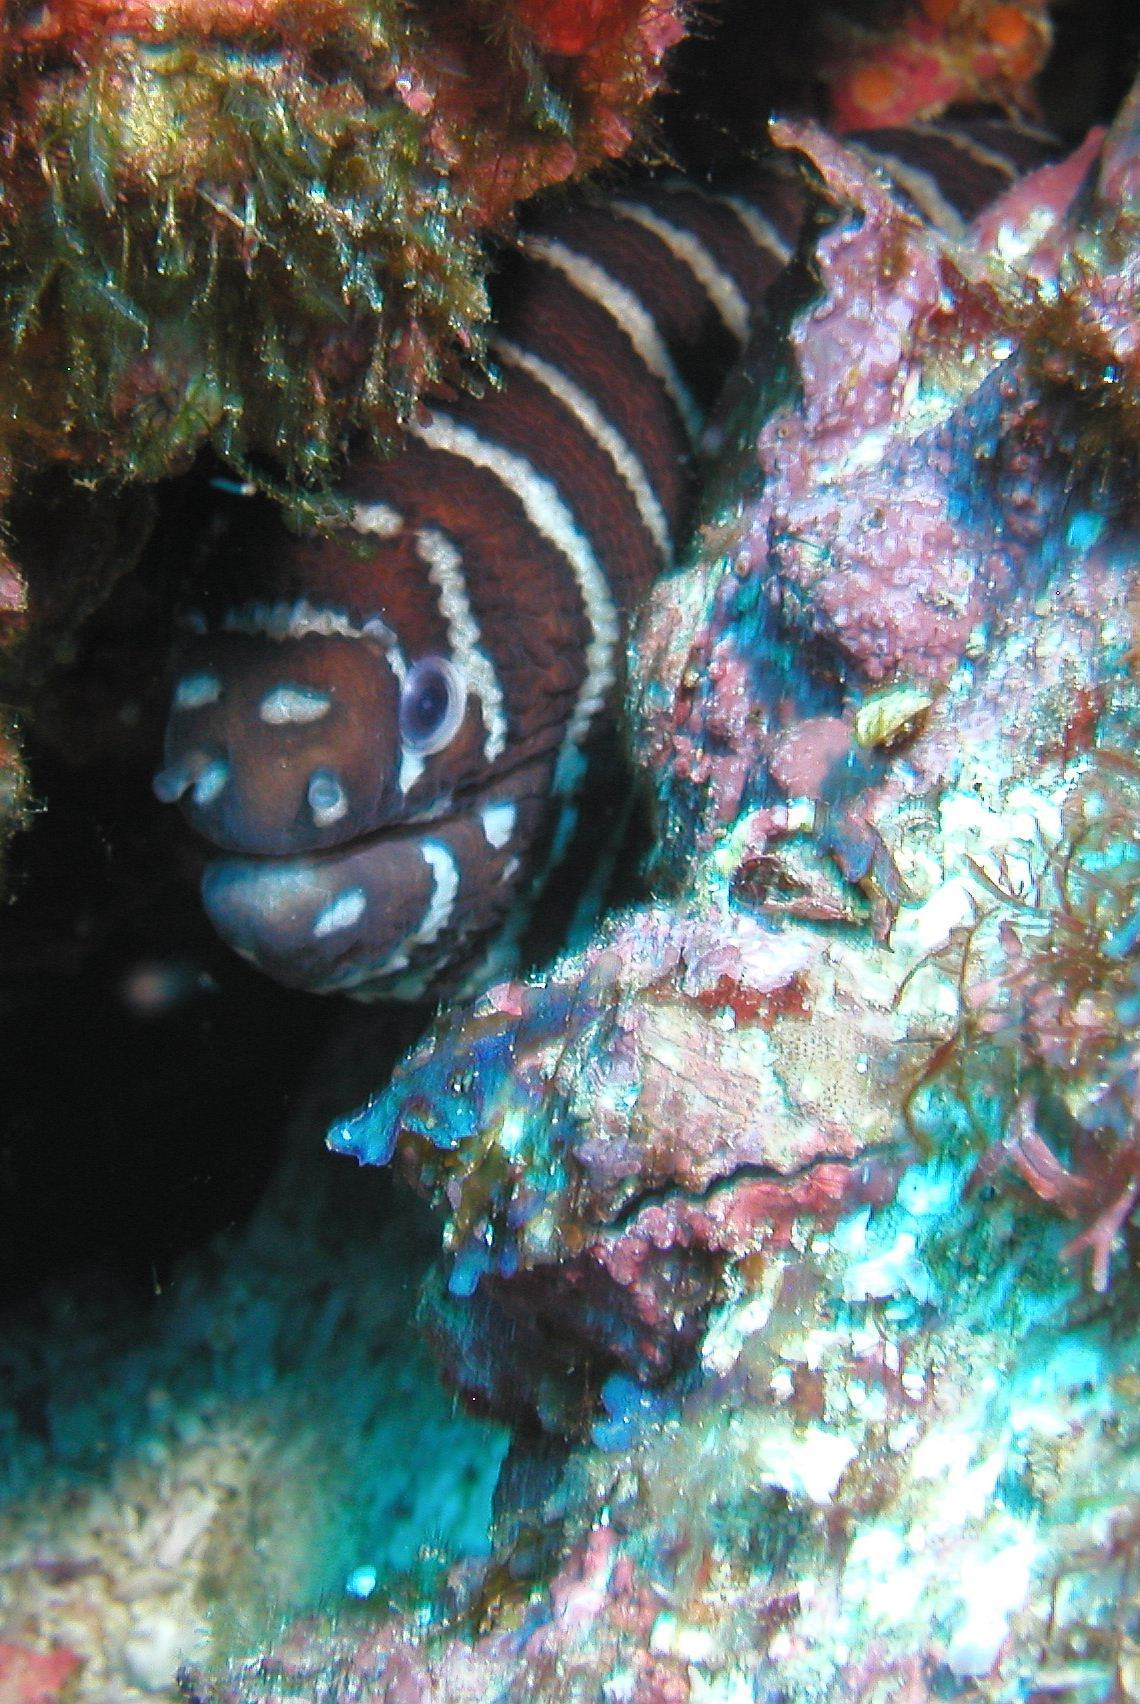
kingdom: Animalia
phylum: Chordata
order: Anguilliformes
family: Muraenidae
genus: Gymnomuraena
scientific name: Gymnomuraena zebra
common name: Zebra moray
